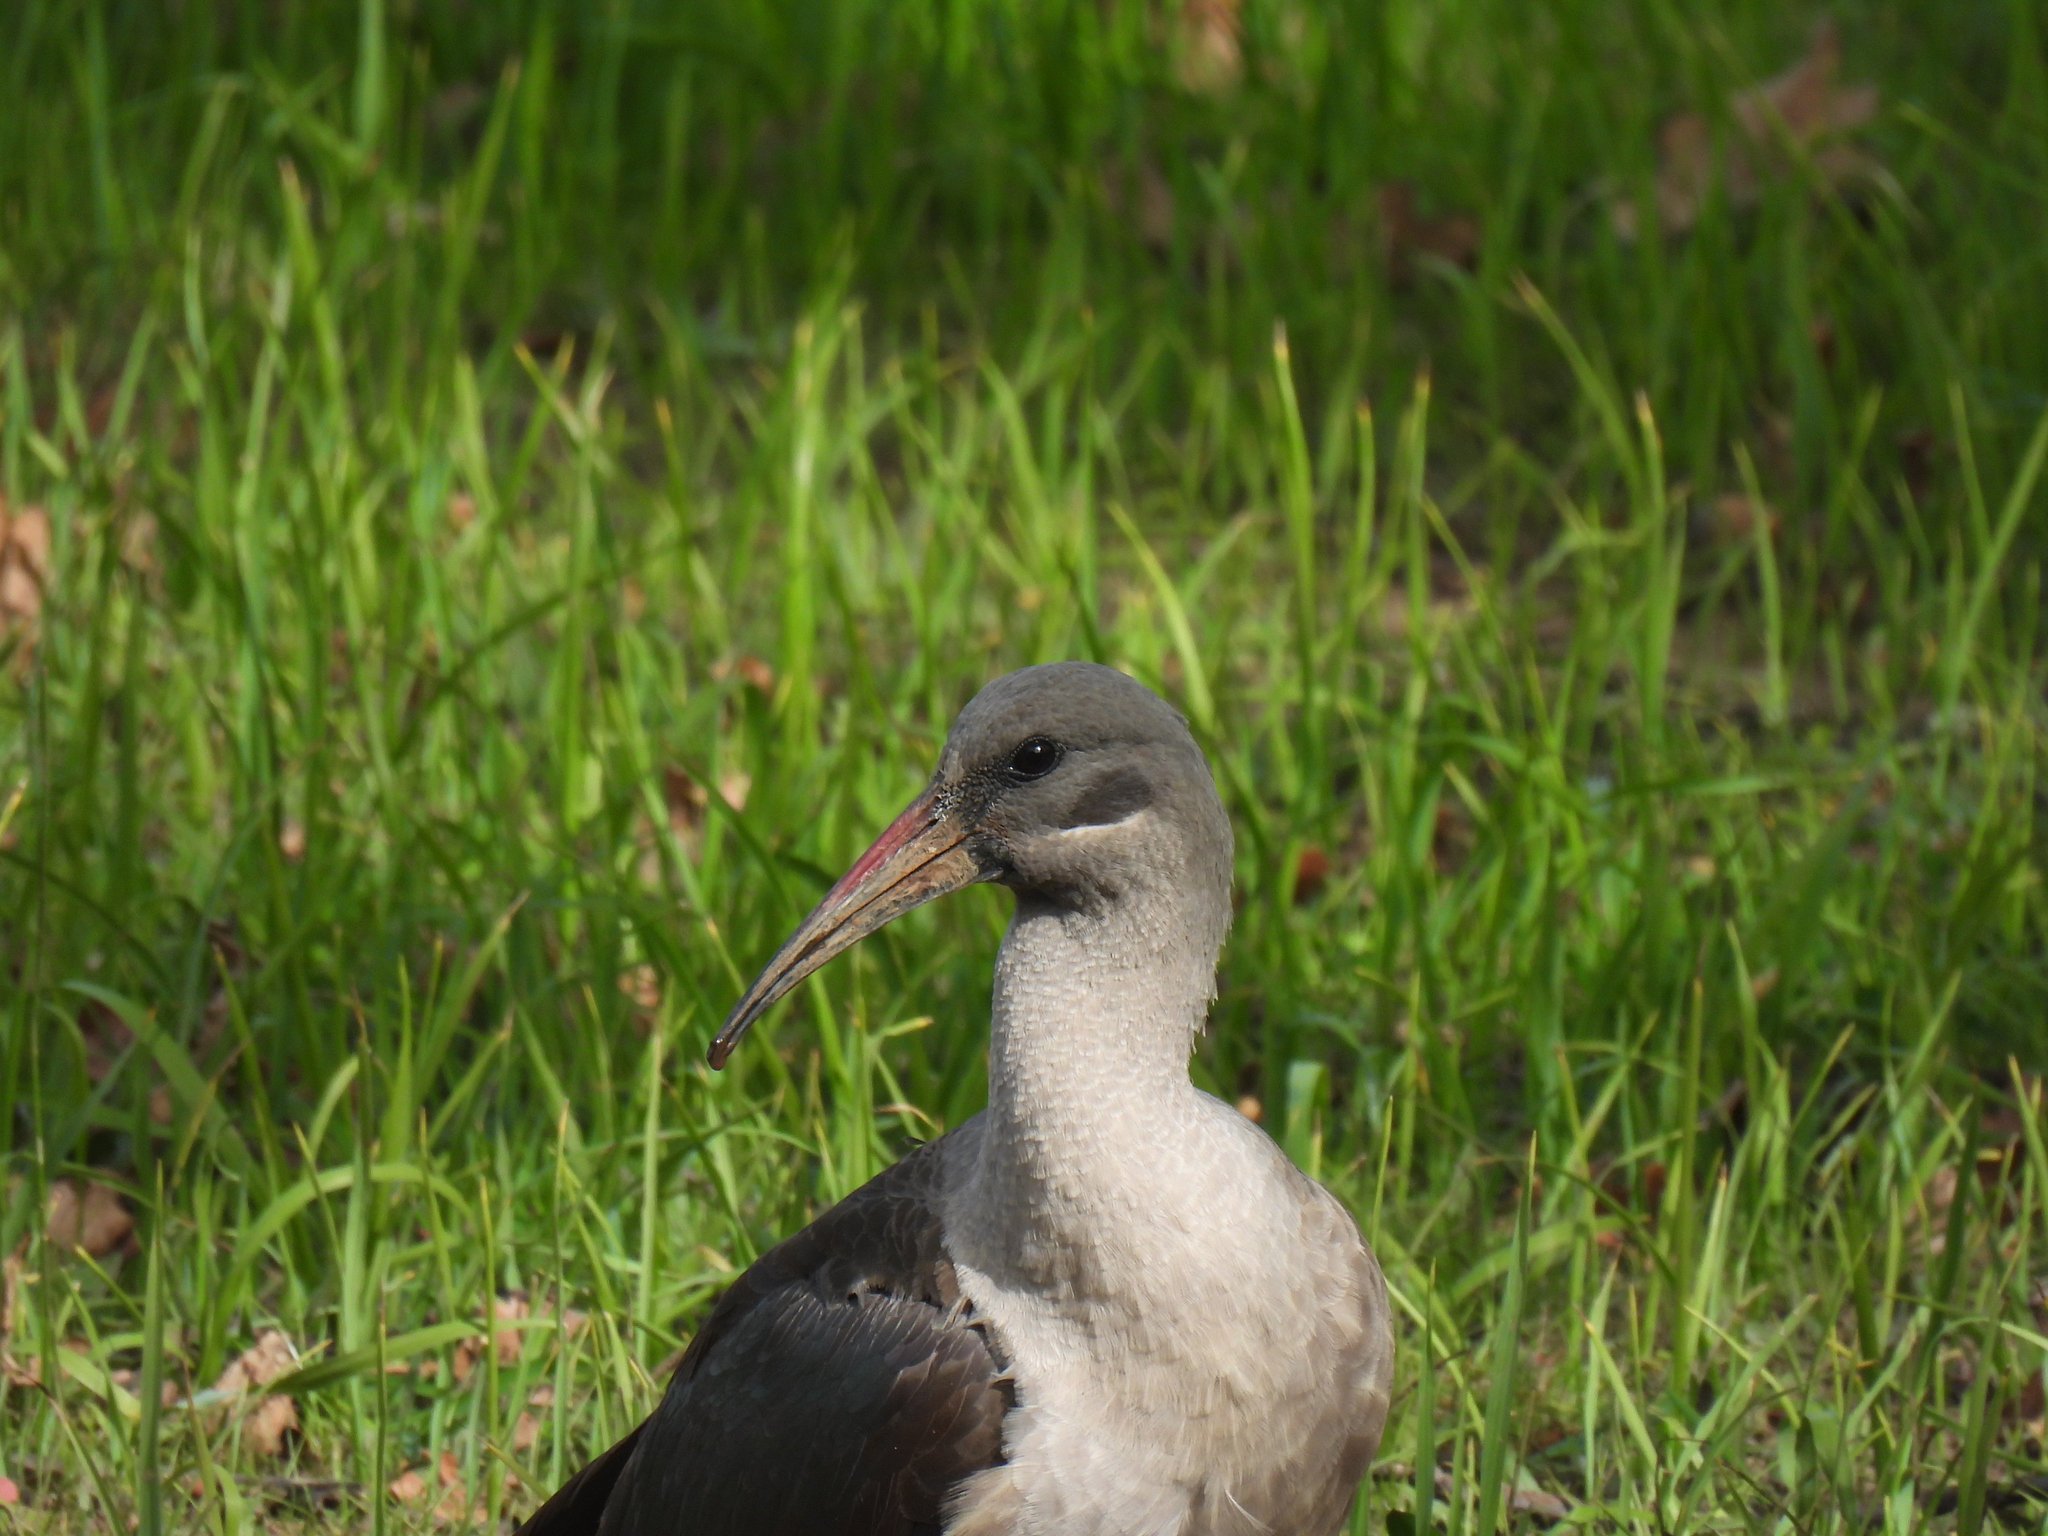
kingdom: Animalia
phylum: Chordata
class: Aves
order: Pelecaniformes
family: Threskiornithidae
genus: Bostrychia
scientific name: Bostrychia hagedash
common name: Hadada ibis
